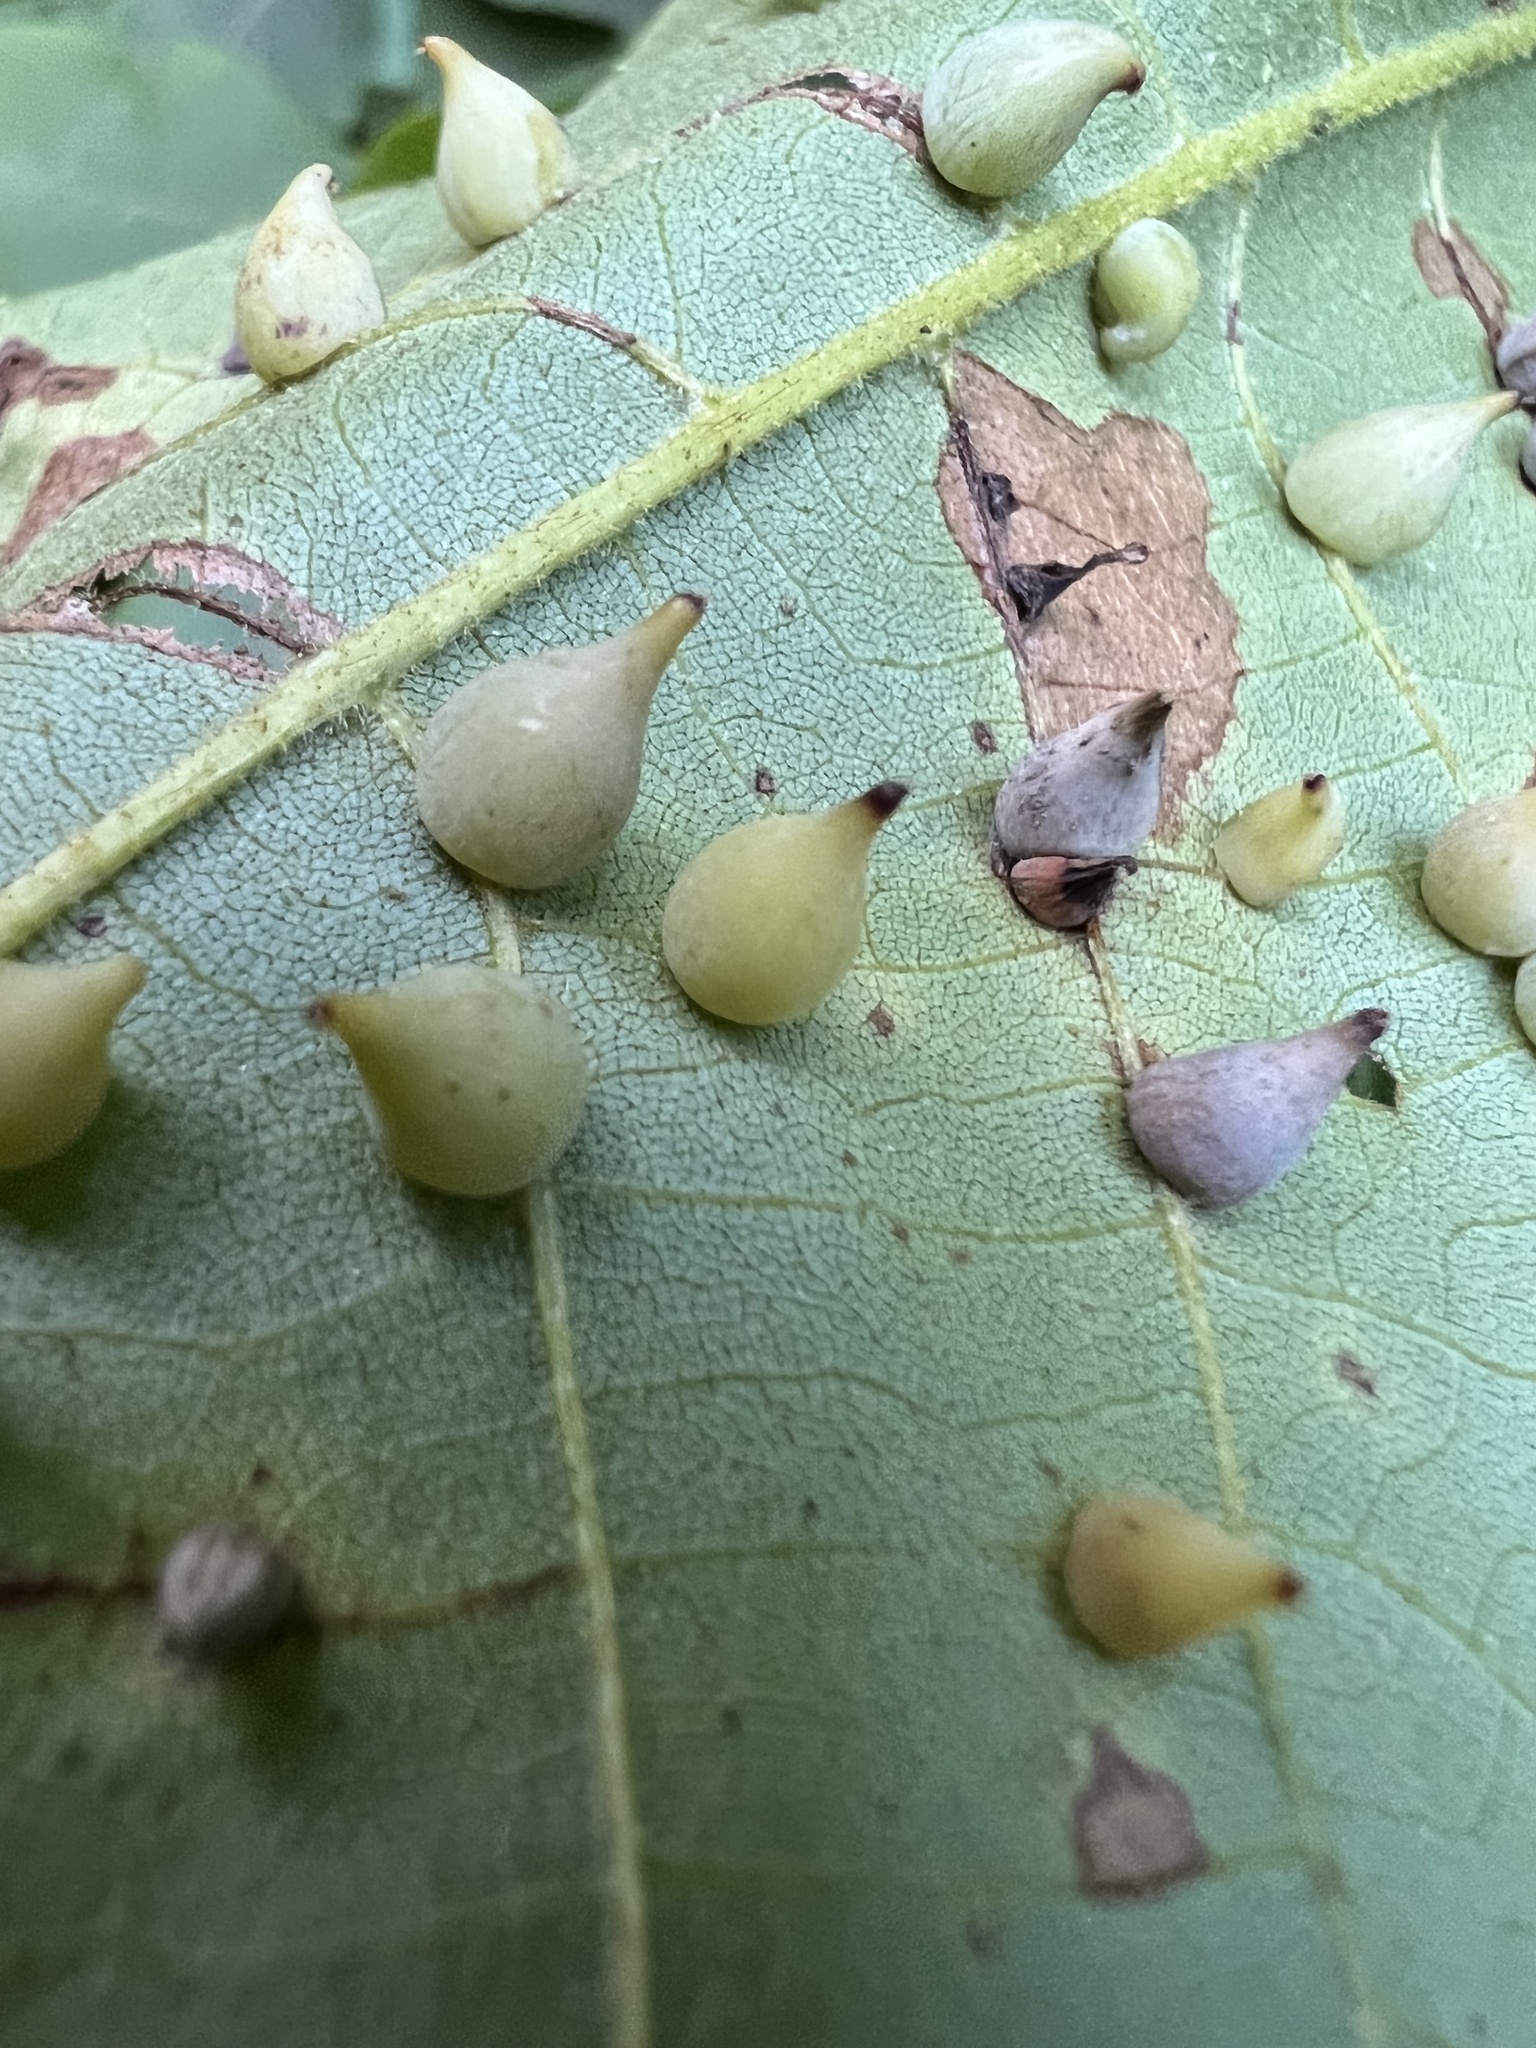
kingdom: Animalia
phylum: Arthropoda
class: Insecta
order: Diptera
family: Cecidomyiidae
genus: Caryomyia
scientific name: Caryomyia caryaecola
